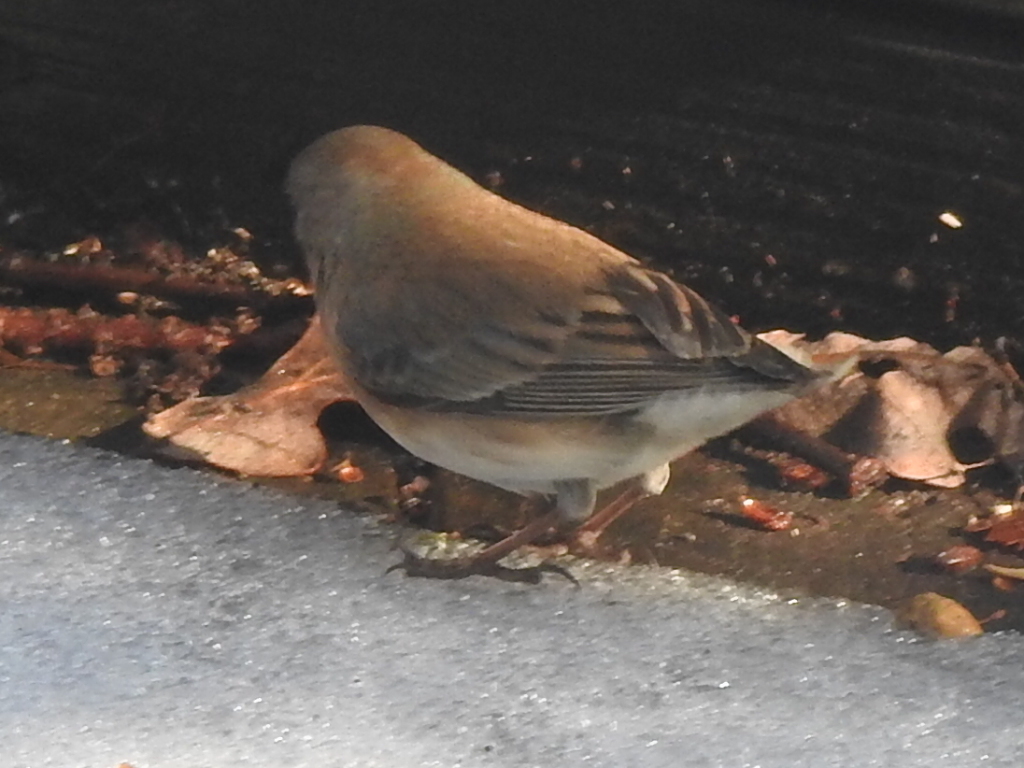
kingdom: Animalia
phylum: Chordata
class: Aves
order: Passeriformes
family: Passerellidae
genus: Junco
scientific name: Junco hyemalis
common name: Dark-eyed junco
